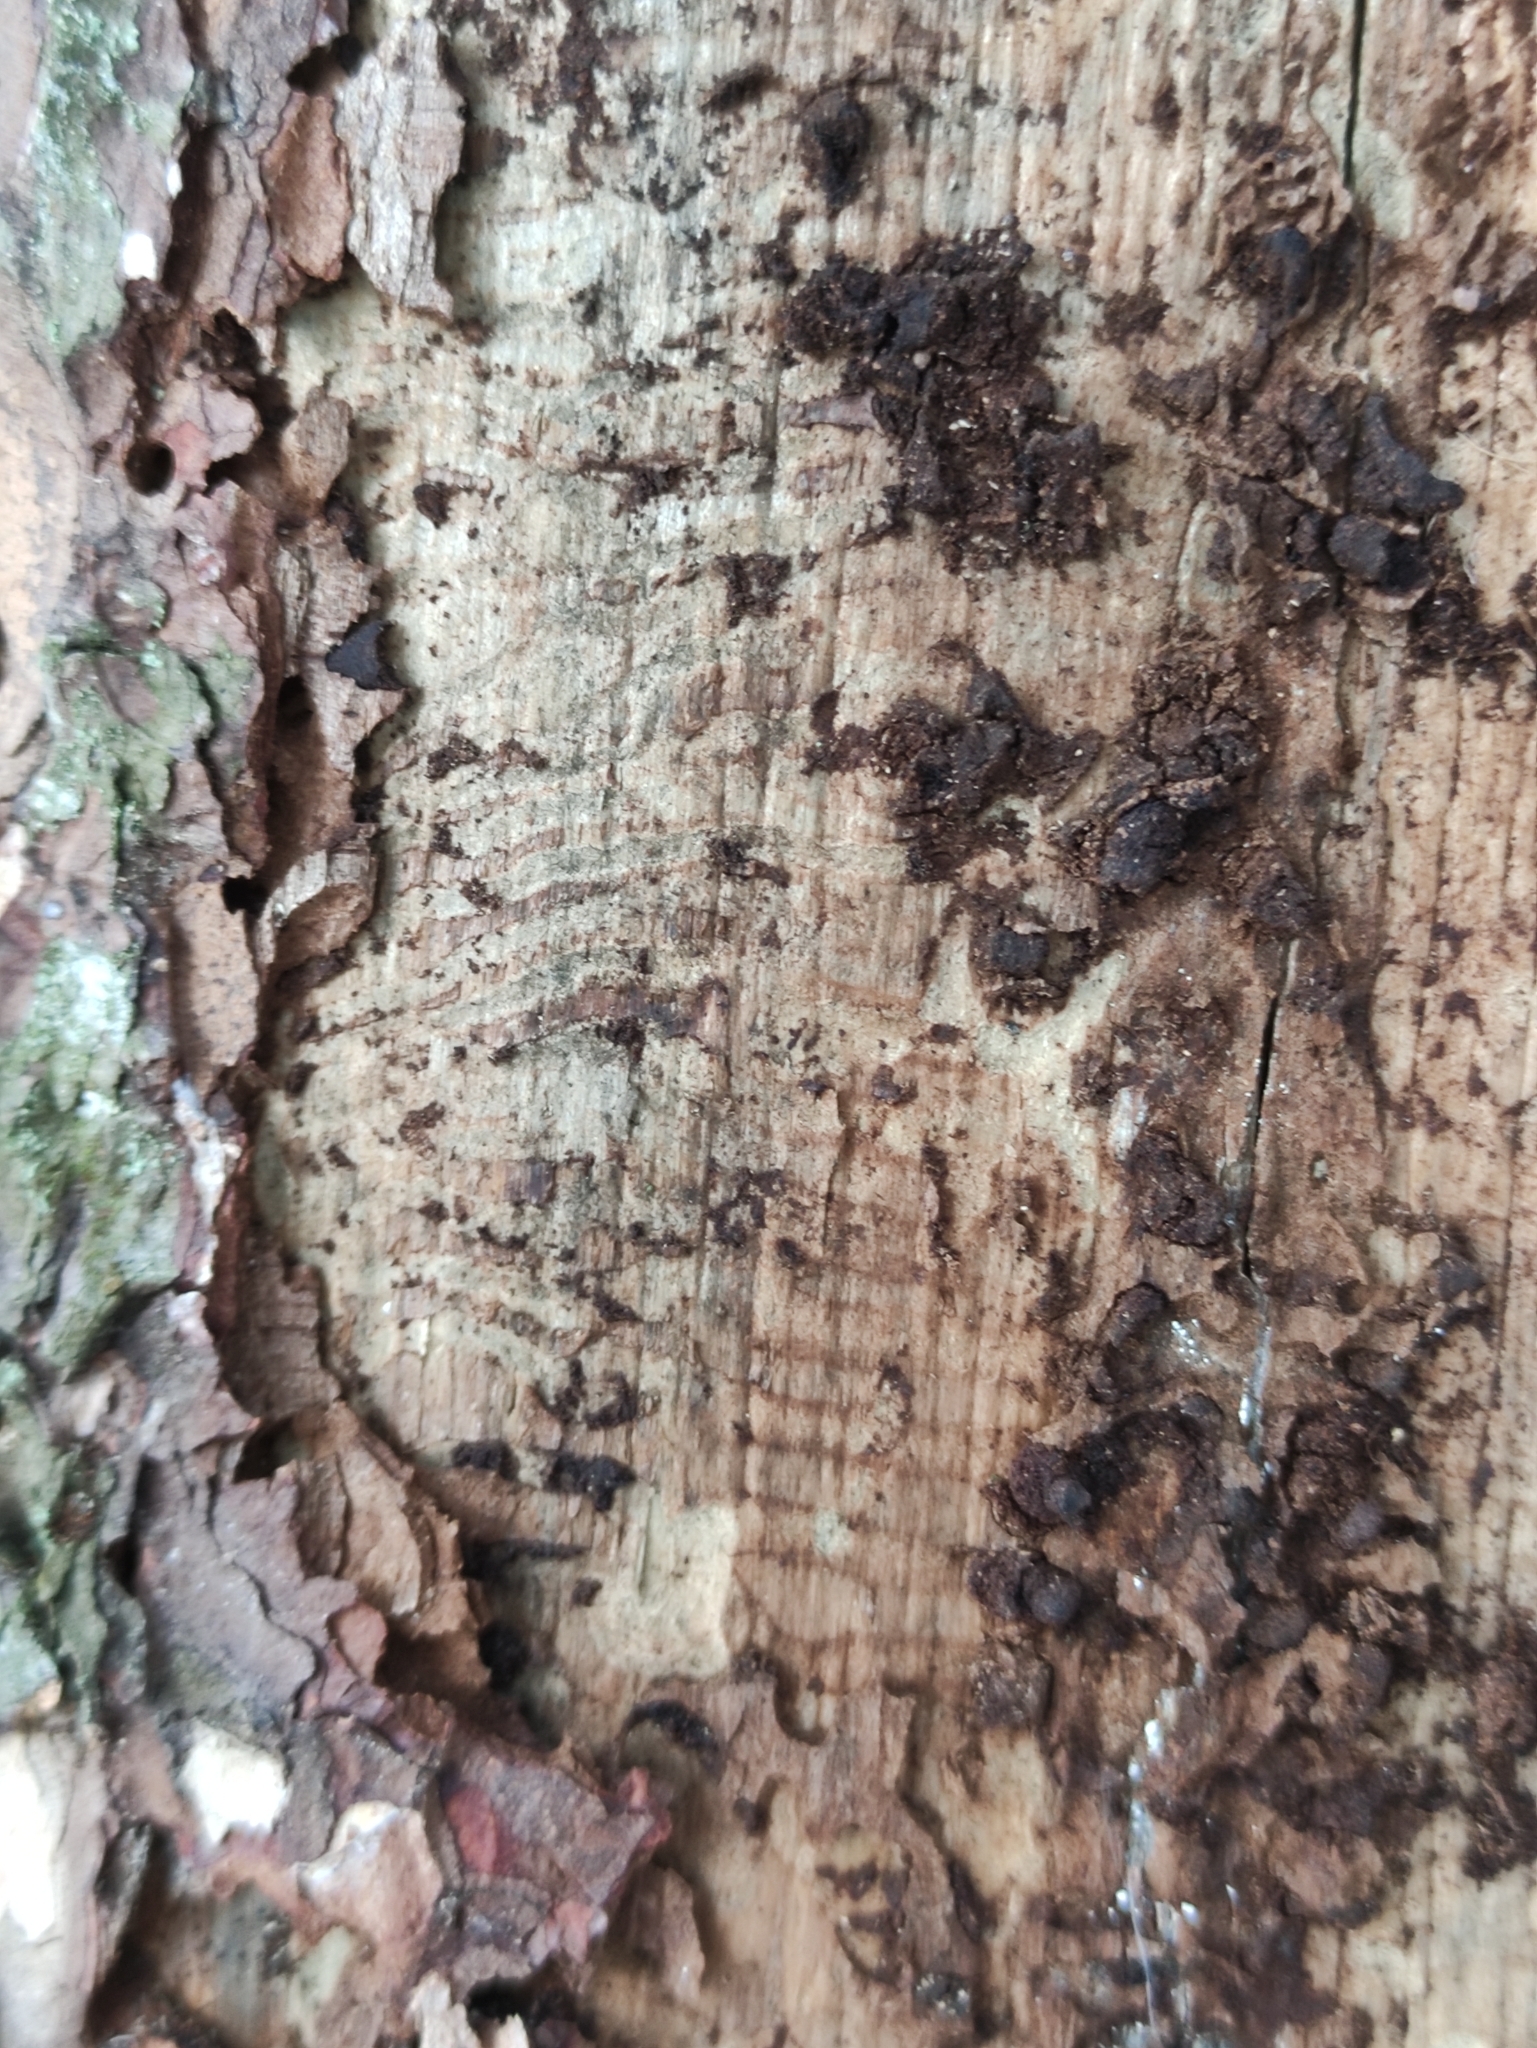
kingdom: Animalia
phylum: Arthropoda
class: Insecta
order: Coleoptera
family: Curculionidae
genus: Tomicus
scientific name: Tomicus piniperda
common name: Large pine shoot beetle
